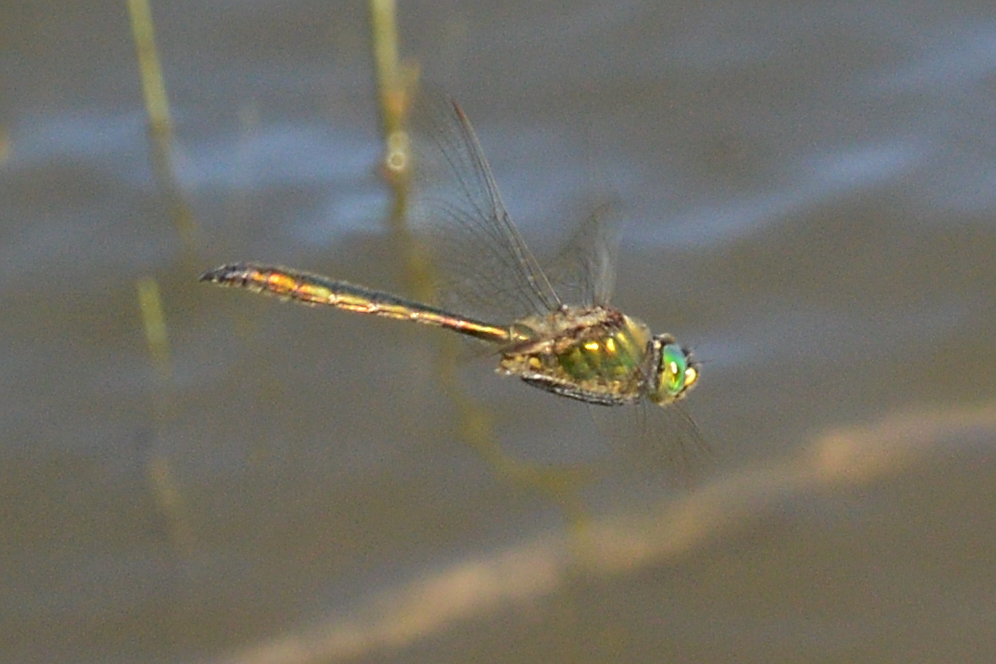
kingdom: Animalia
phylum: Arthropoda
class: Insecta
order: Odonata
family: Corduliidae
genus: Somatochlora
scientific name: Somatochlora metallica
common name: Brilliant emerald
